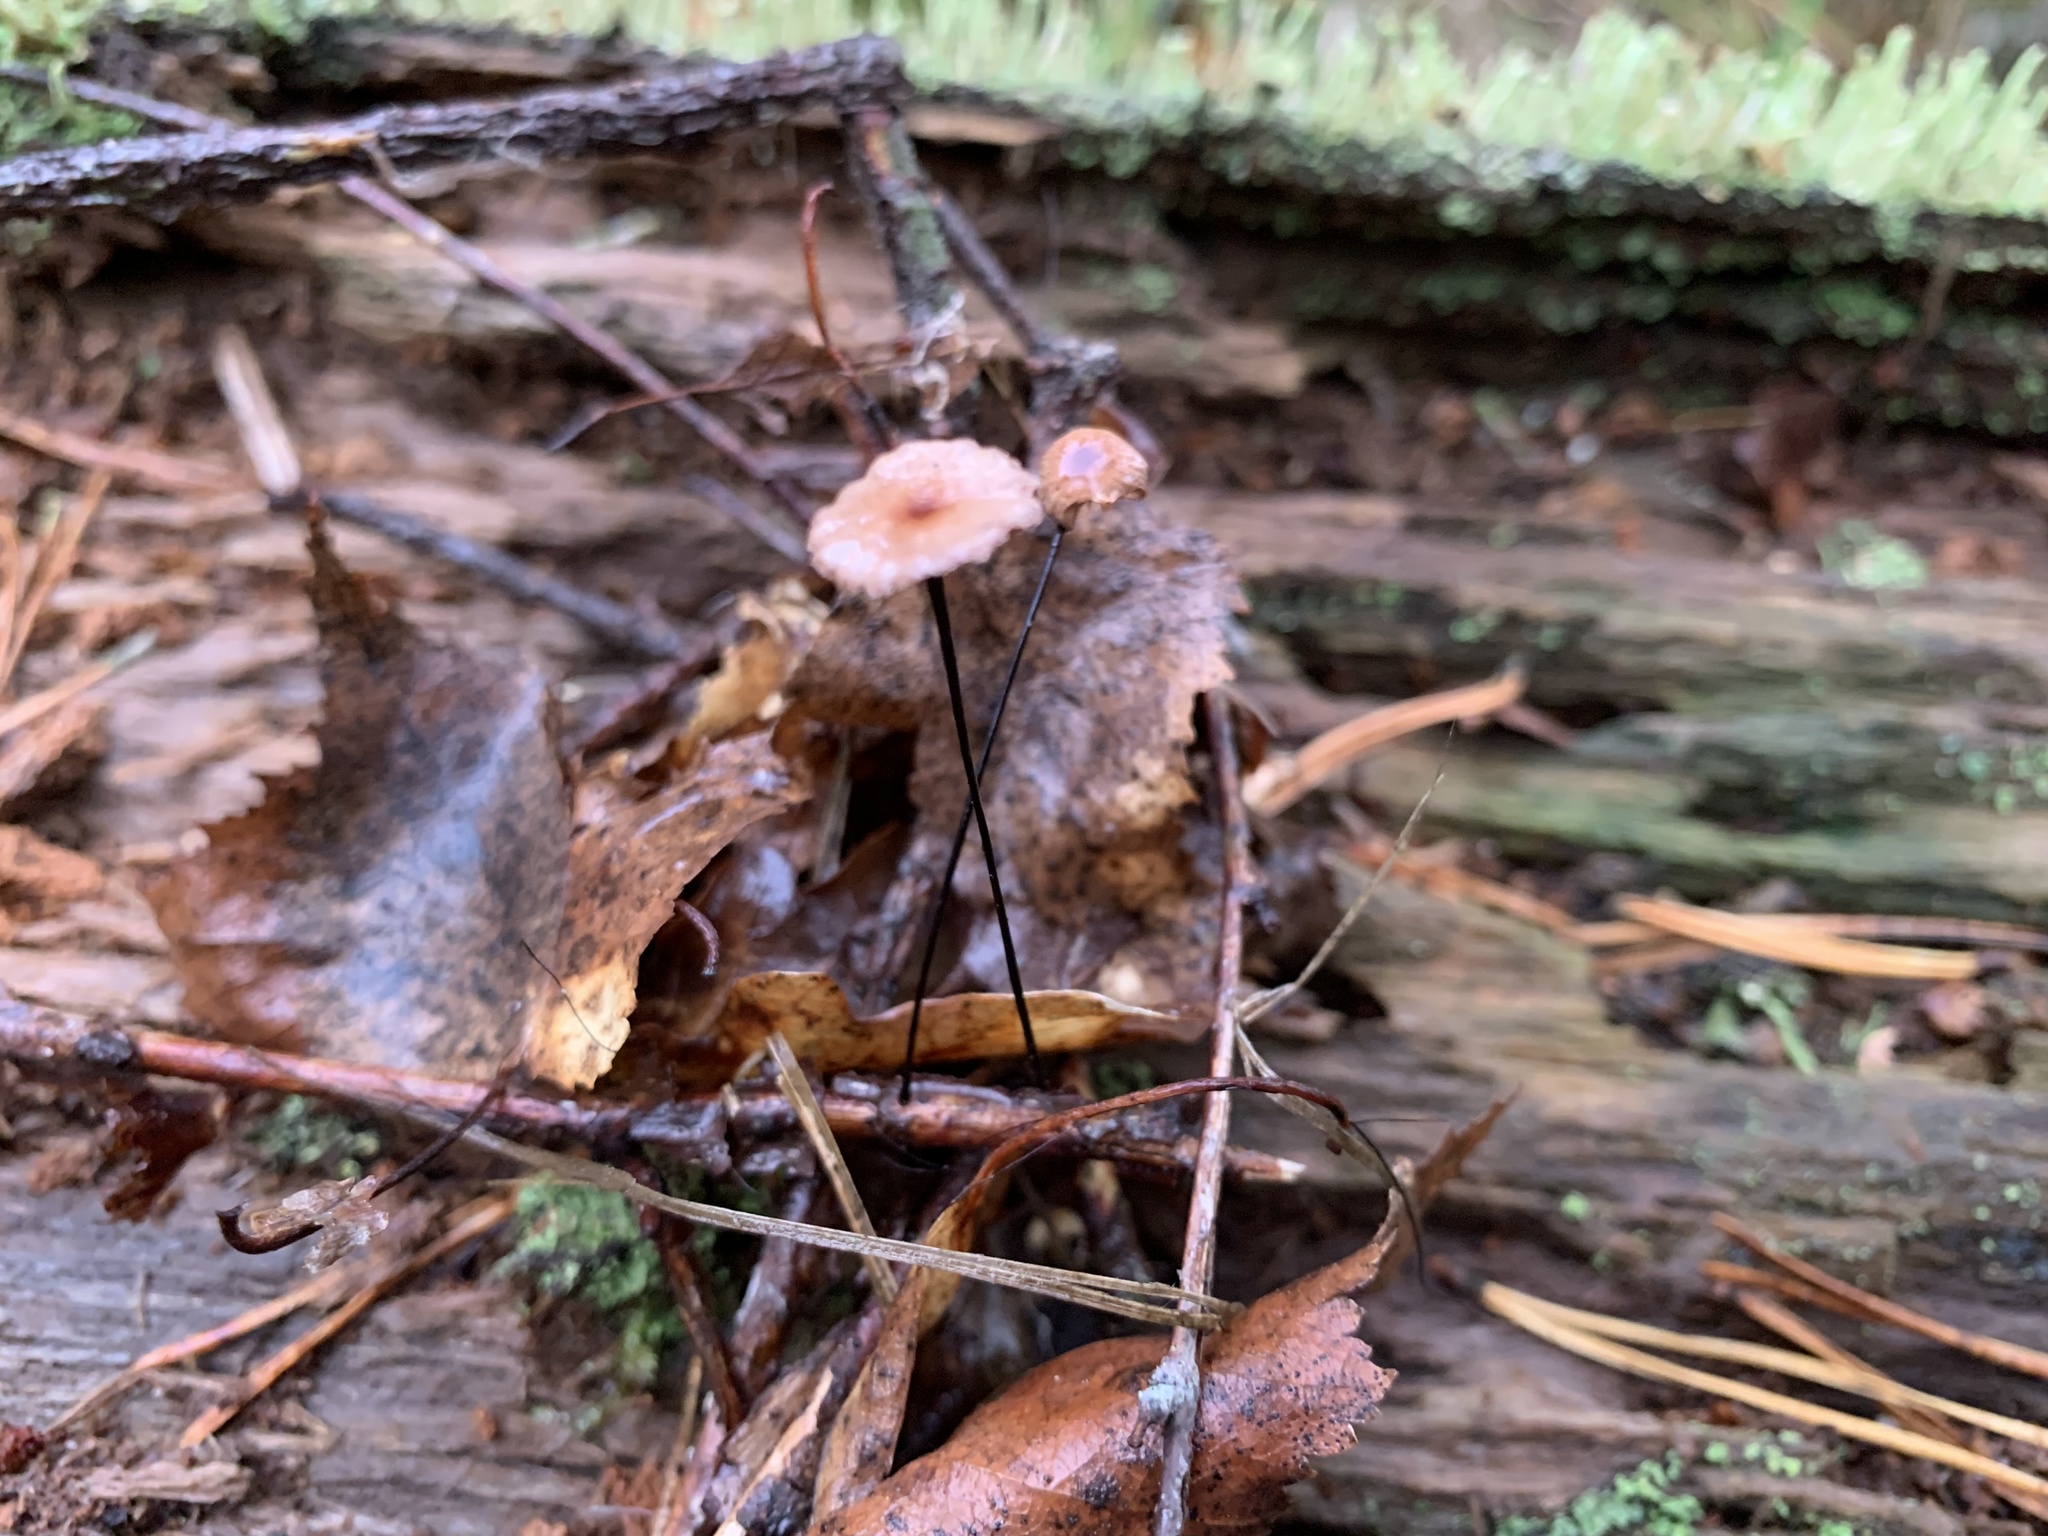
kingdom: Fungi
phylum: Basidiomycota
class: Agaricomycetes
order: Agaricales
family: Omphalotaceae
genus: Gymnopus
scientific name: Gymnopus androsaceus
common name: Horse-hair fungus
